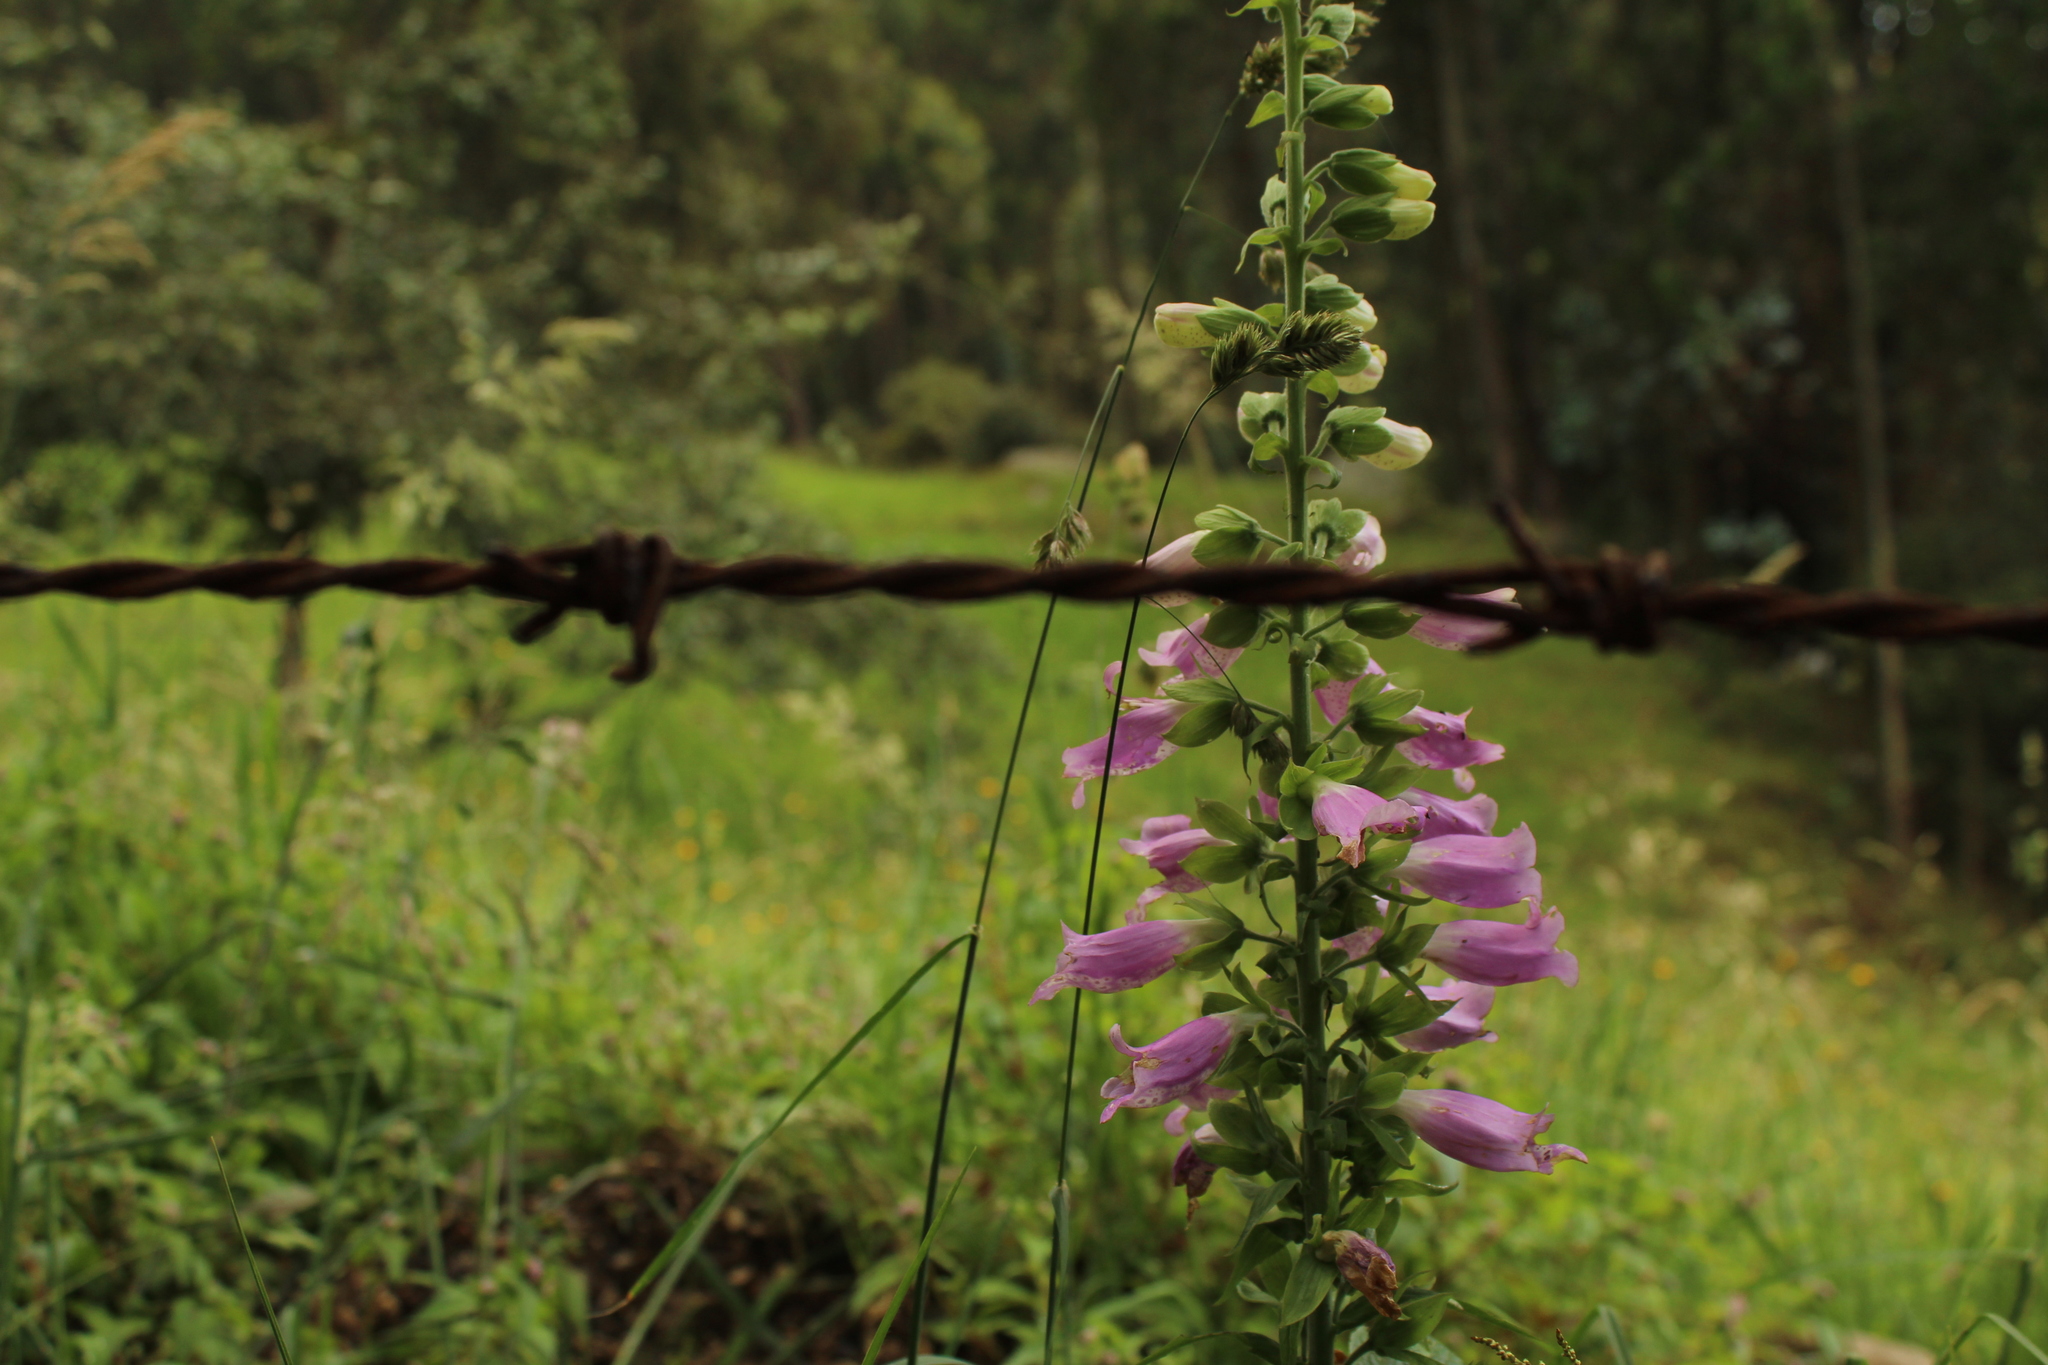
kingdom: Plantae
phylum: Tracheophyta
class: Magnoliopsida
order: Lamiales
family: Plantaginaceae
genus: Digitalis
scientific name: Digitalis purpurea
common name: Foxglove
